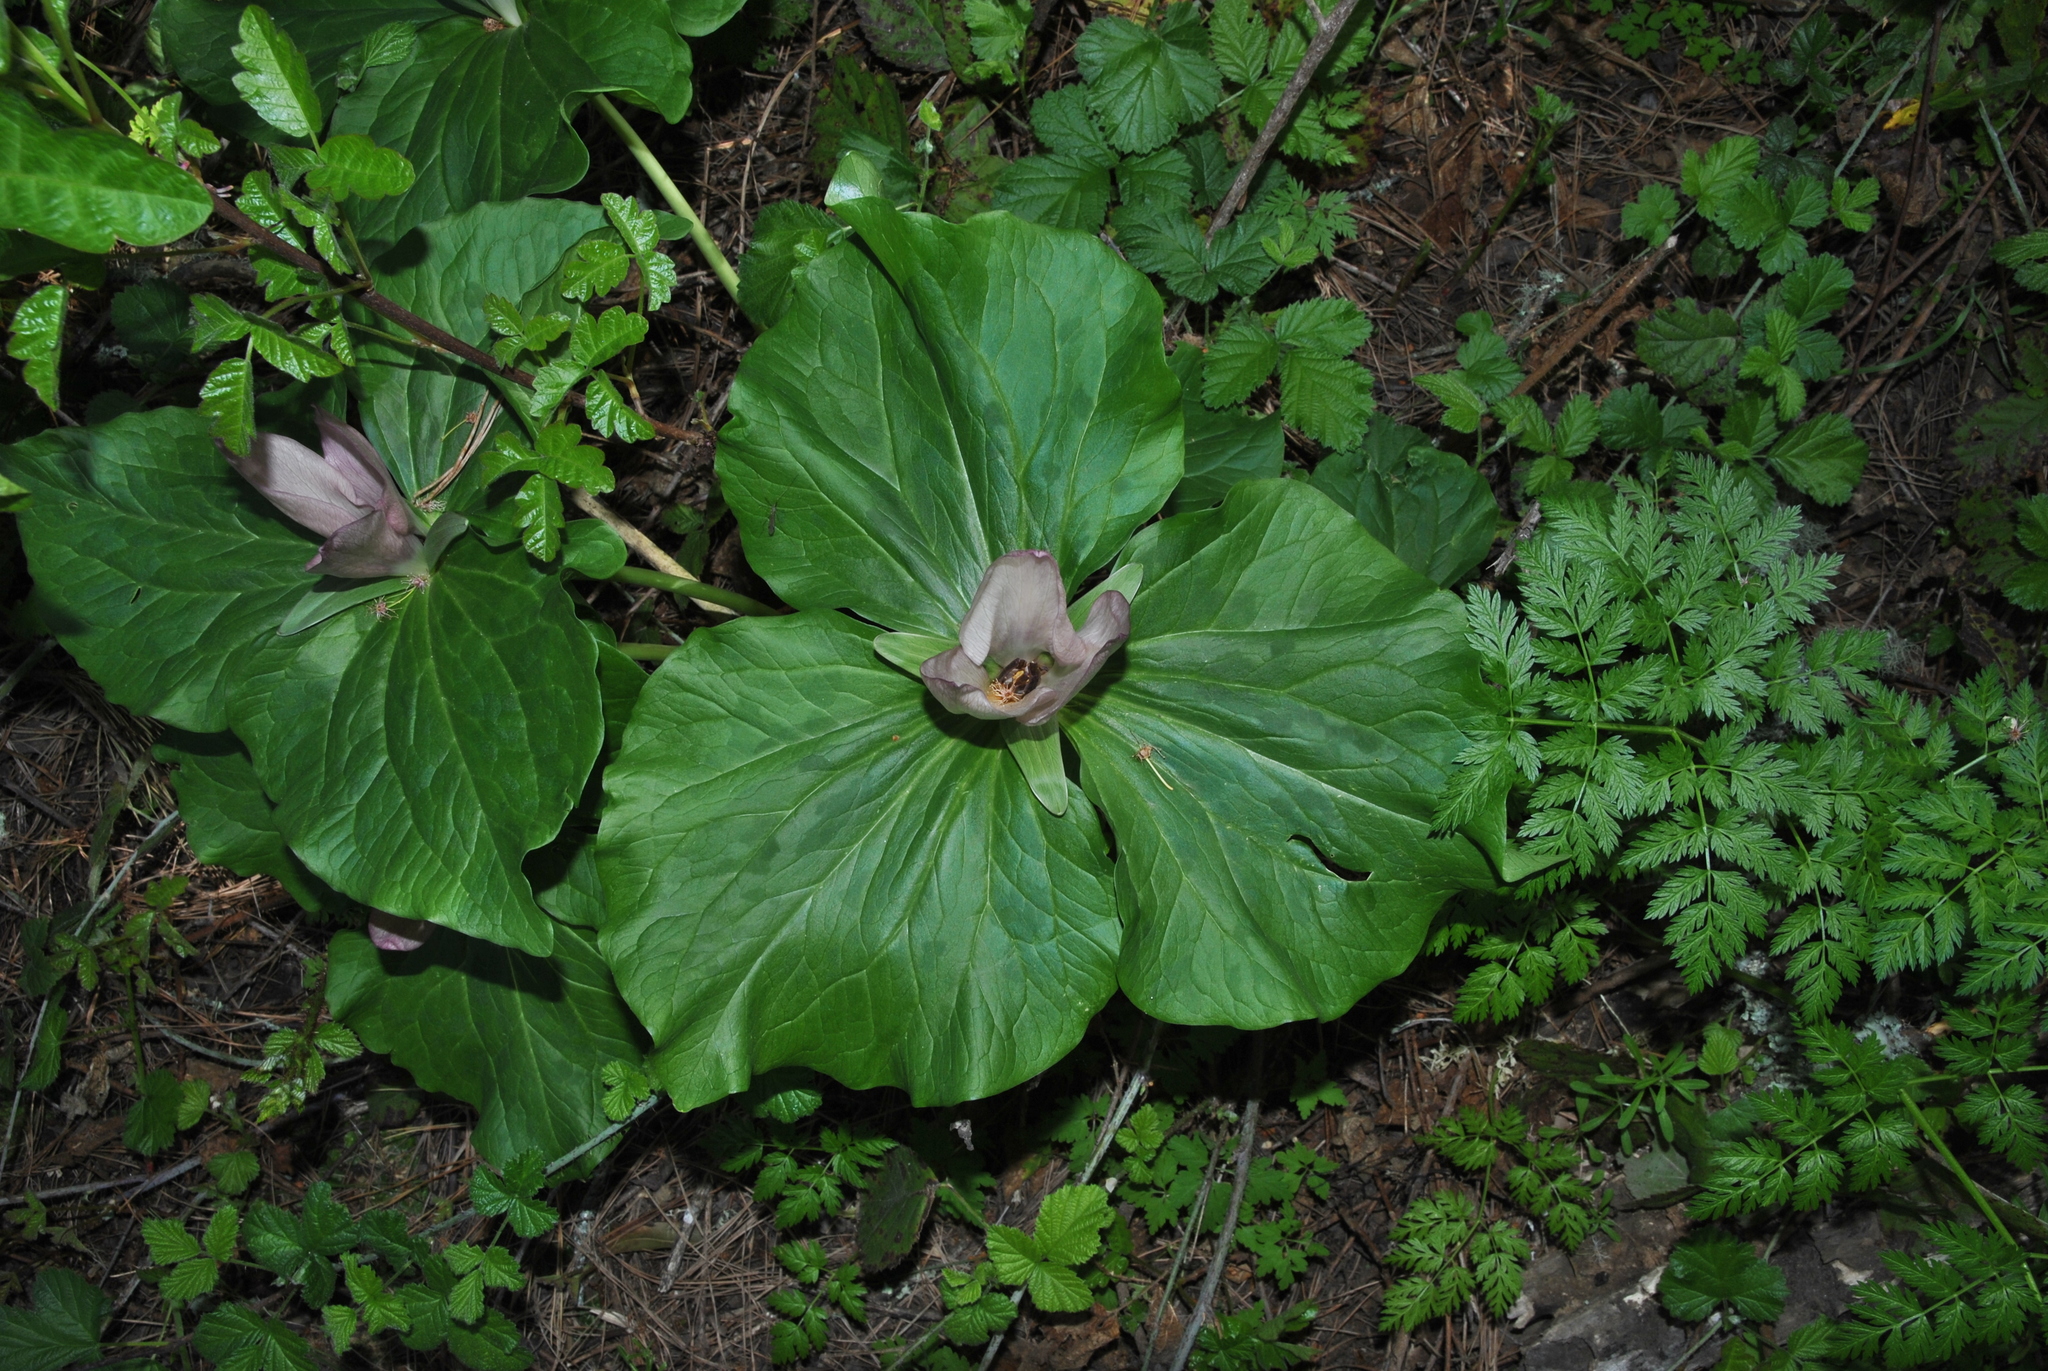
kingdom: Plantae
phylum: Tracheophyta
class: Liliopsida
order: Liliales
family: Melanthiaceae
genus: Trillium
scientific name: Trillium chloropetalum
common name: Giant trillium
